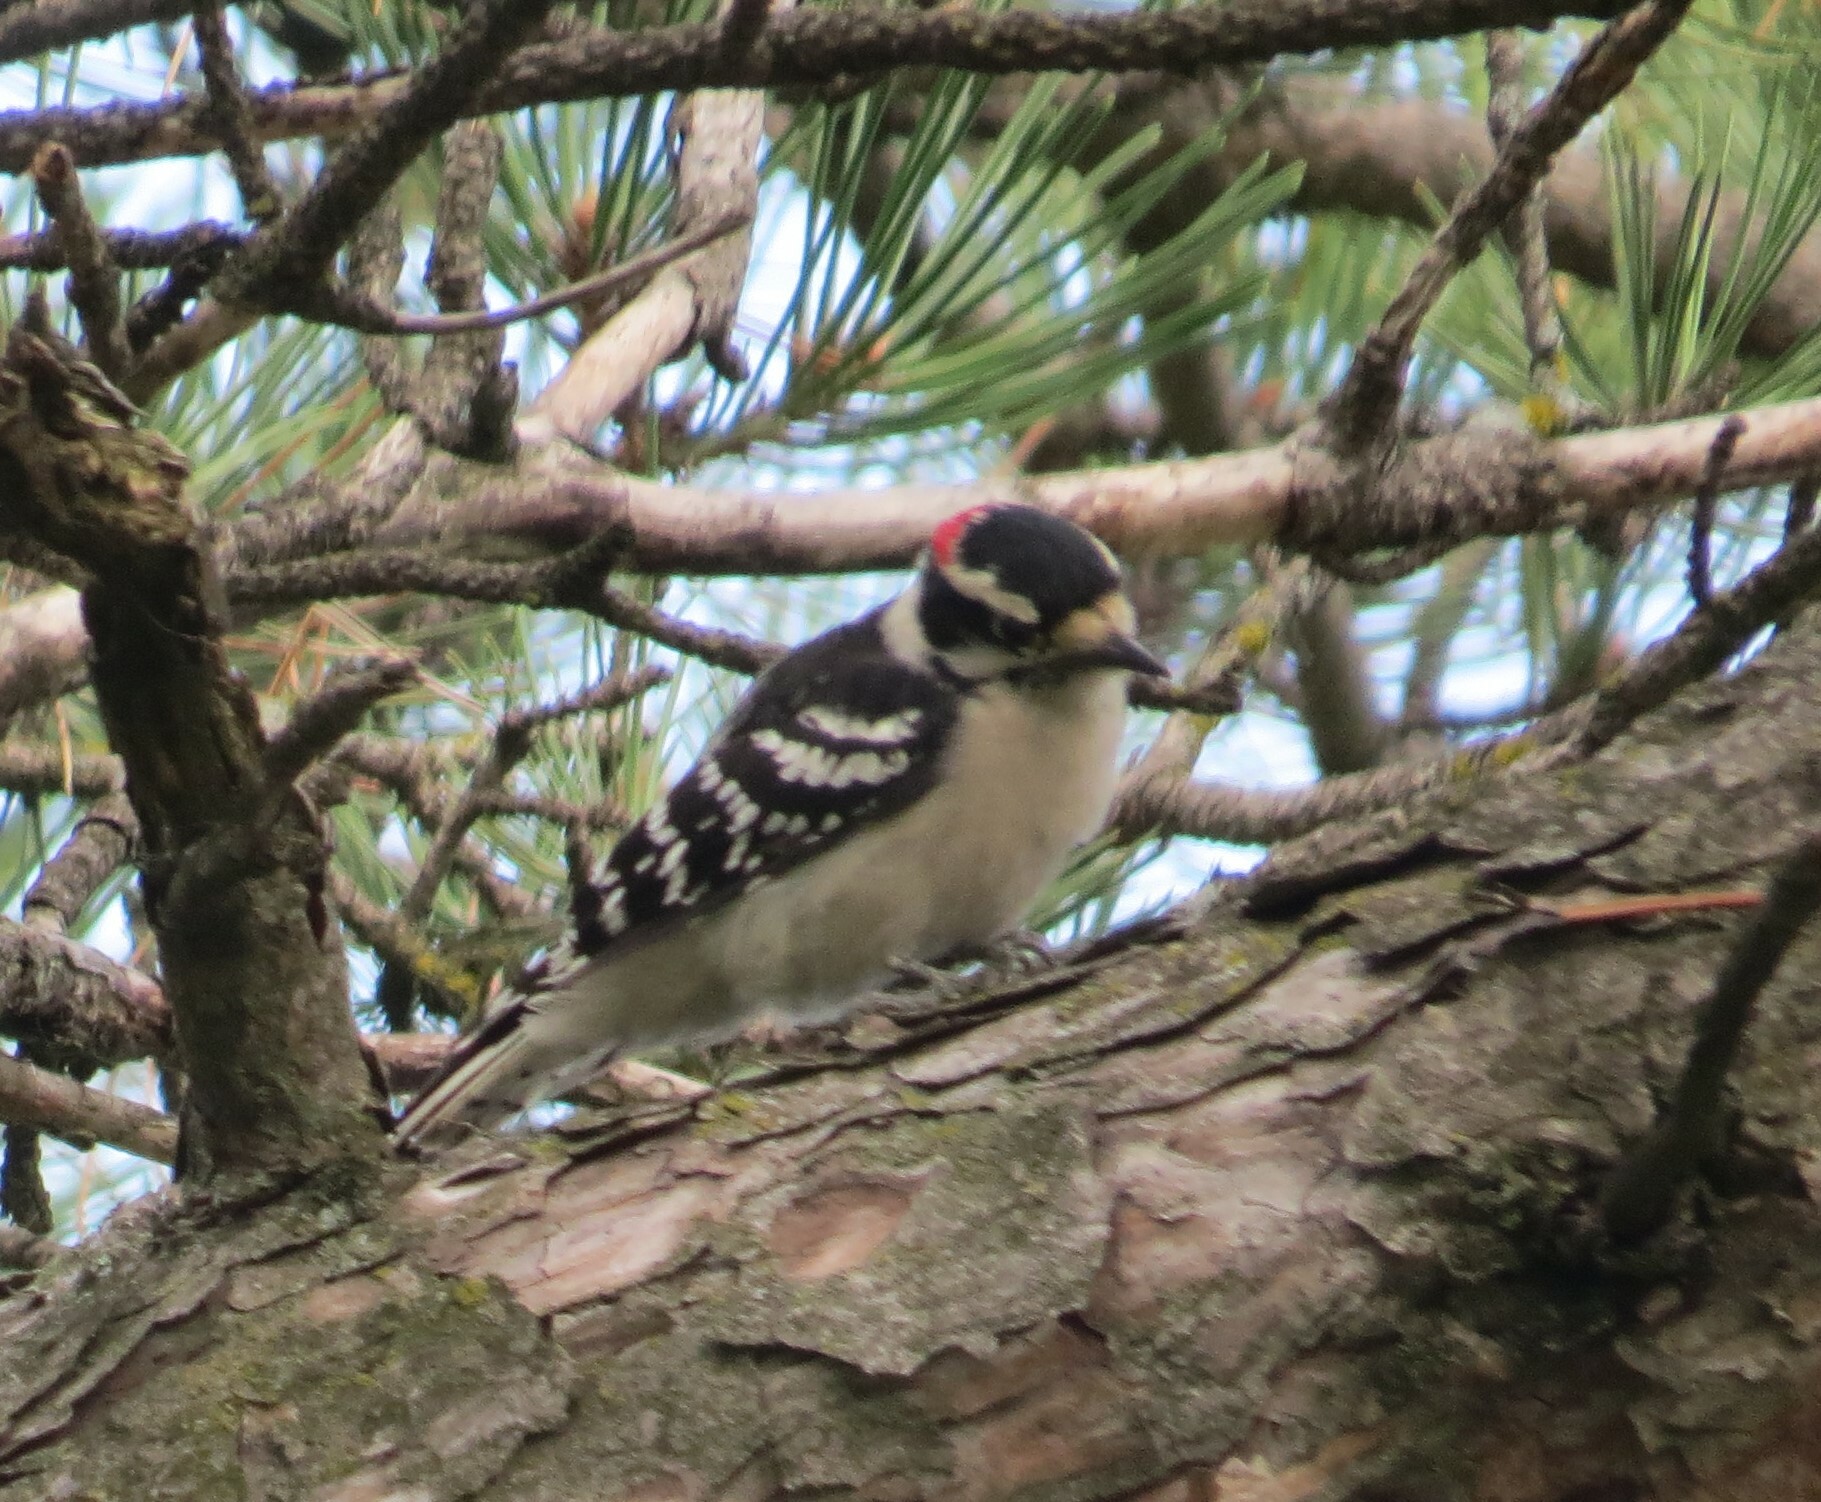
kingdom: Animalia
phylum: Chordata
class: Aves
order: Piciformes
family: Picidae
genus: Dryobates
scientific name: Dryobates pubescens
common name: Downy woodpecker
